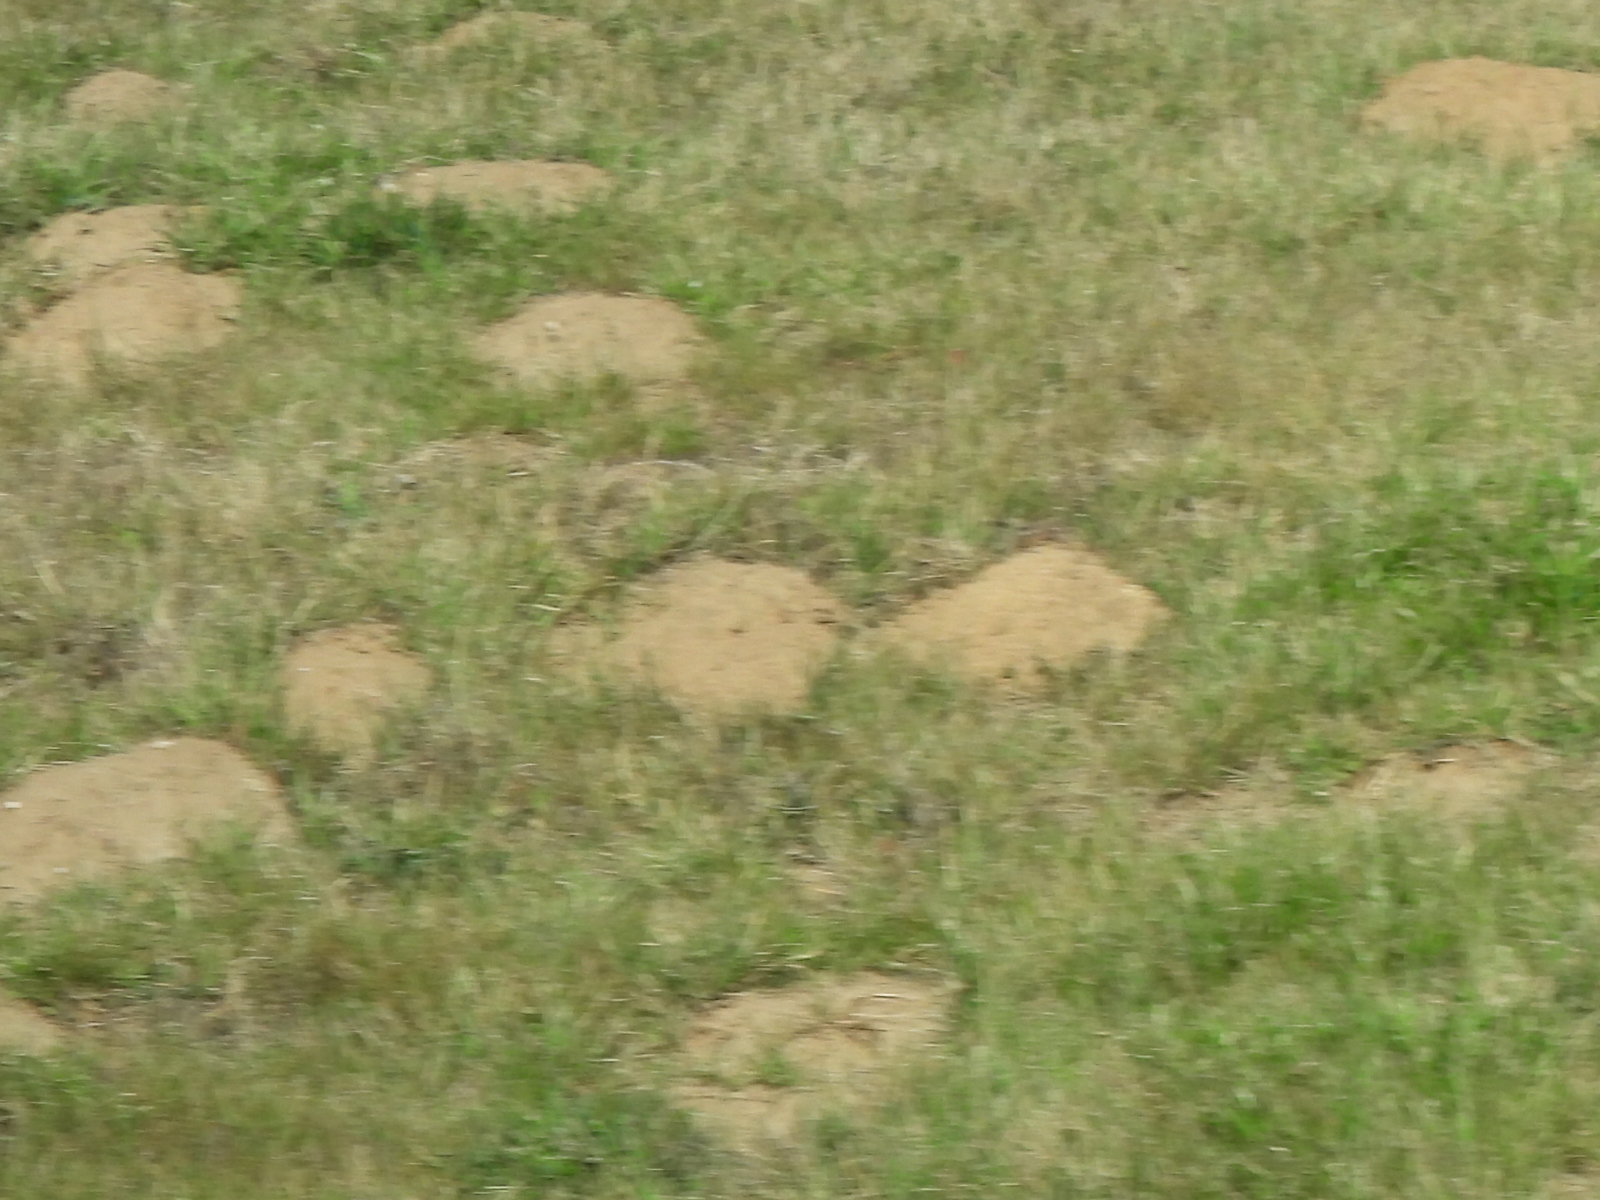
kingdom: Animalia
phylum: Chordata
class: Mammalia
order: Rodentia
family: Geomyidae
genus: Geomys
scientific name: Geomys bursarius
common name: Plains pocket gopher
